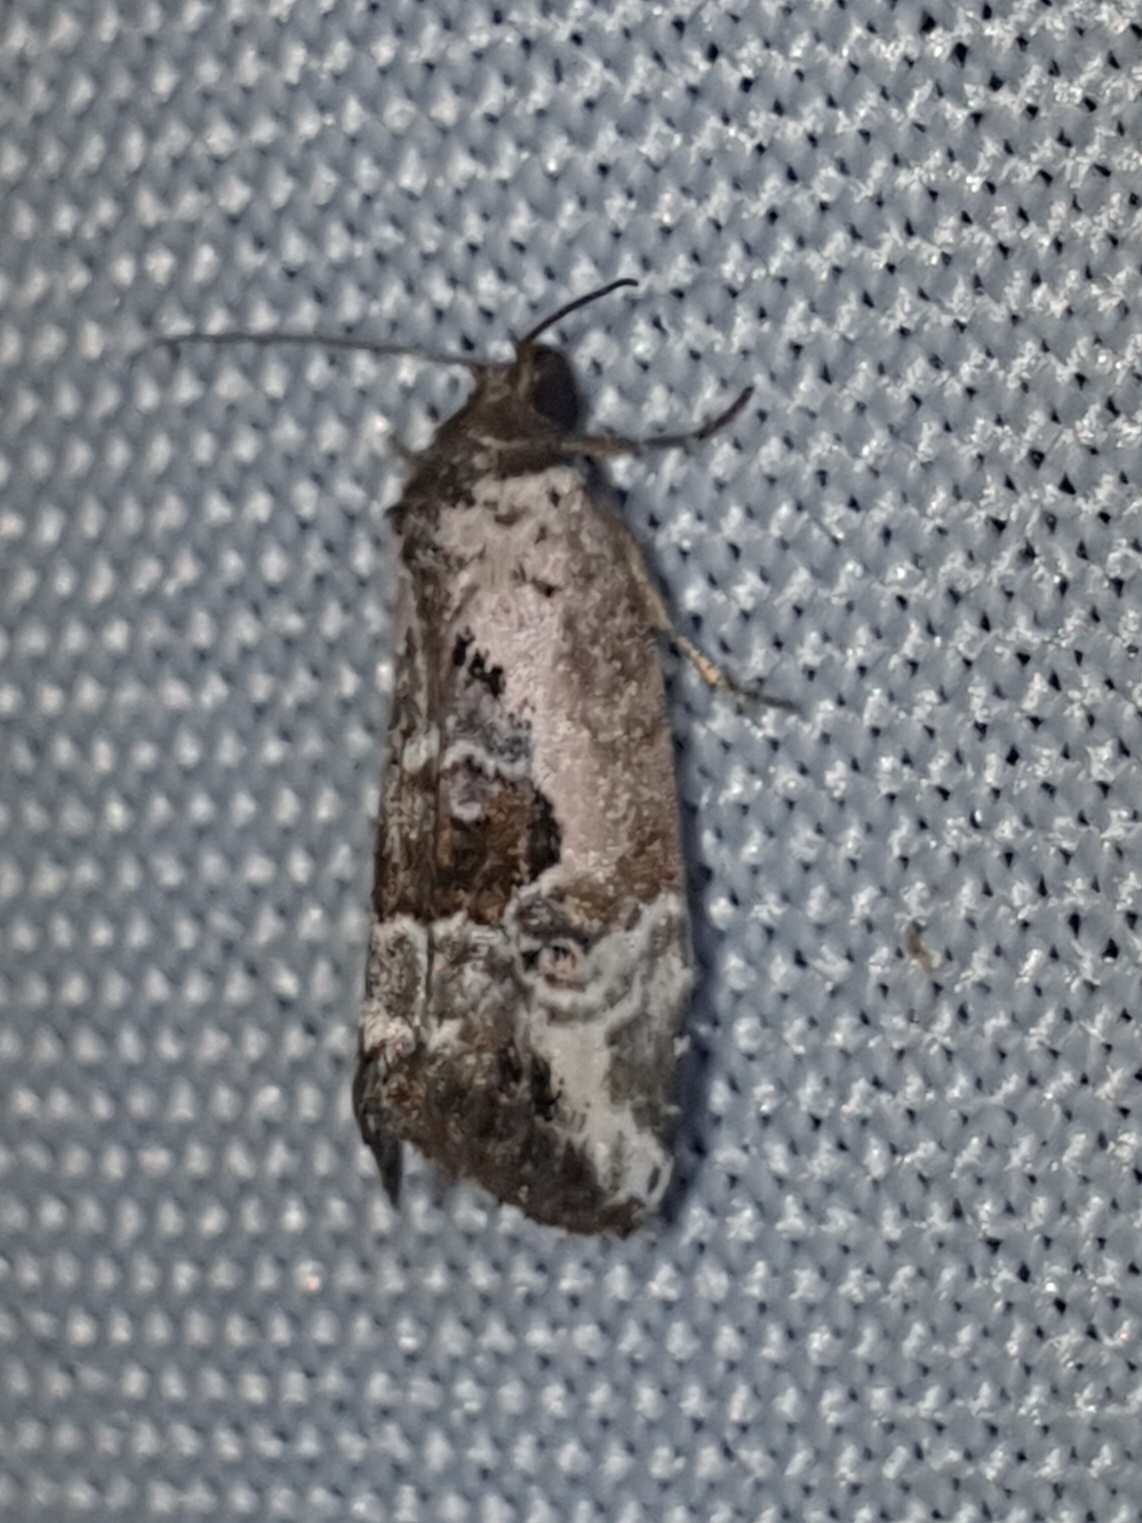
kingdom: Animalia
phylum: Arthropoda
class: Insecta
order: Lepidoptera
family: Noctuidae
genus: Elaphria
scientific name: Elaphria venustula
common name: Rosy marbled
